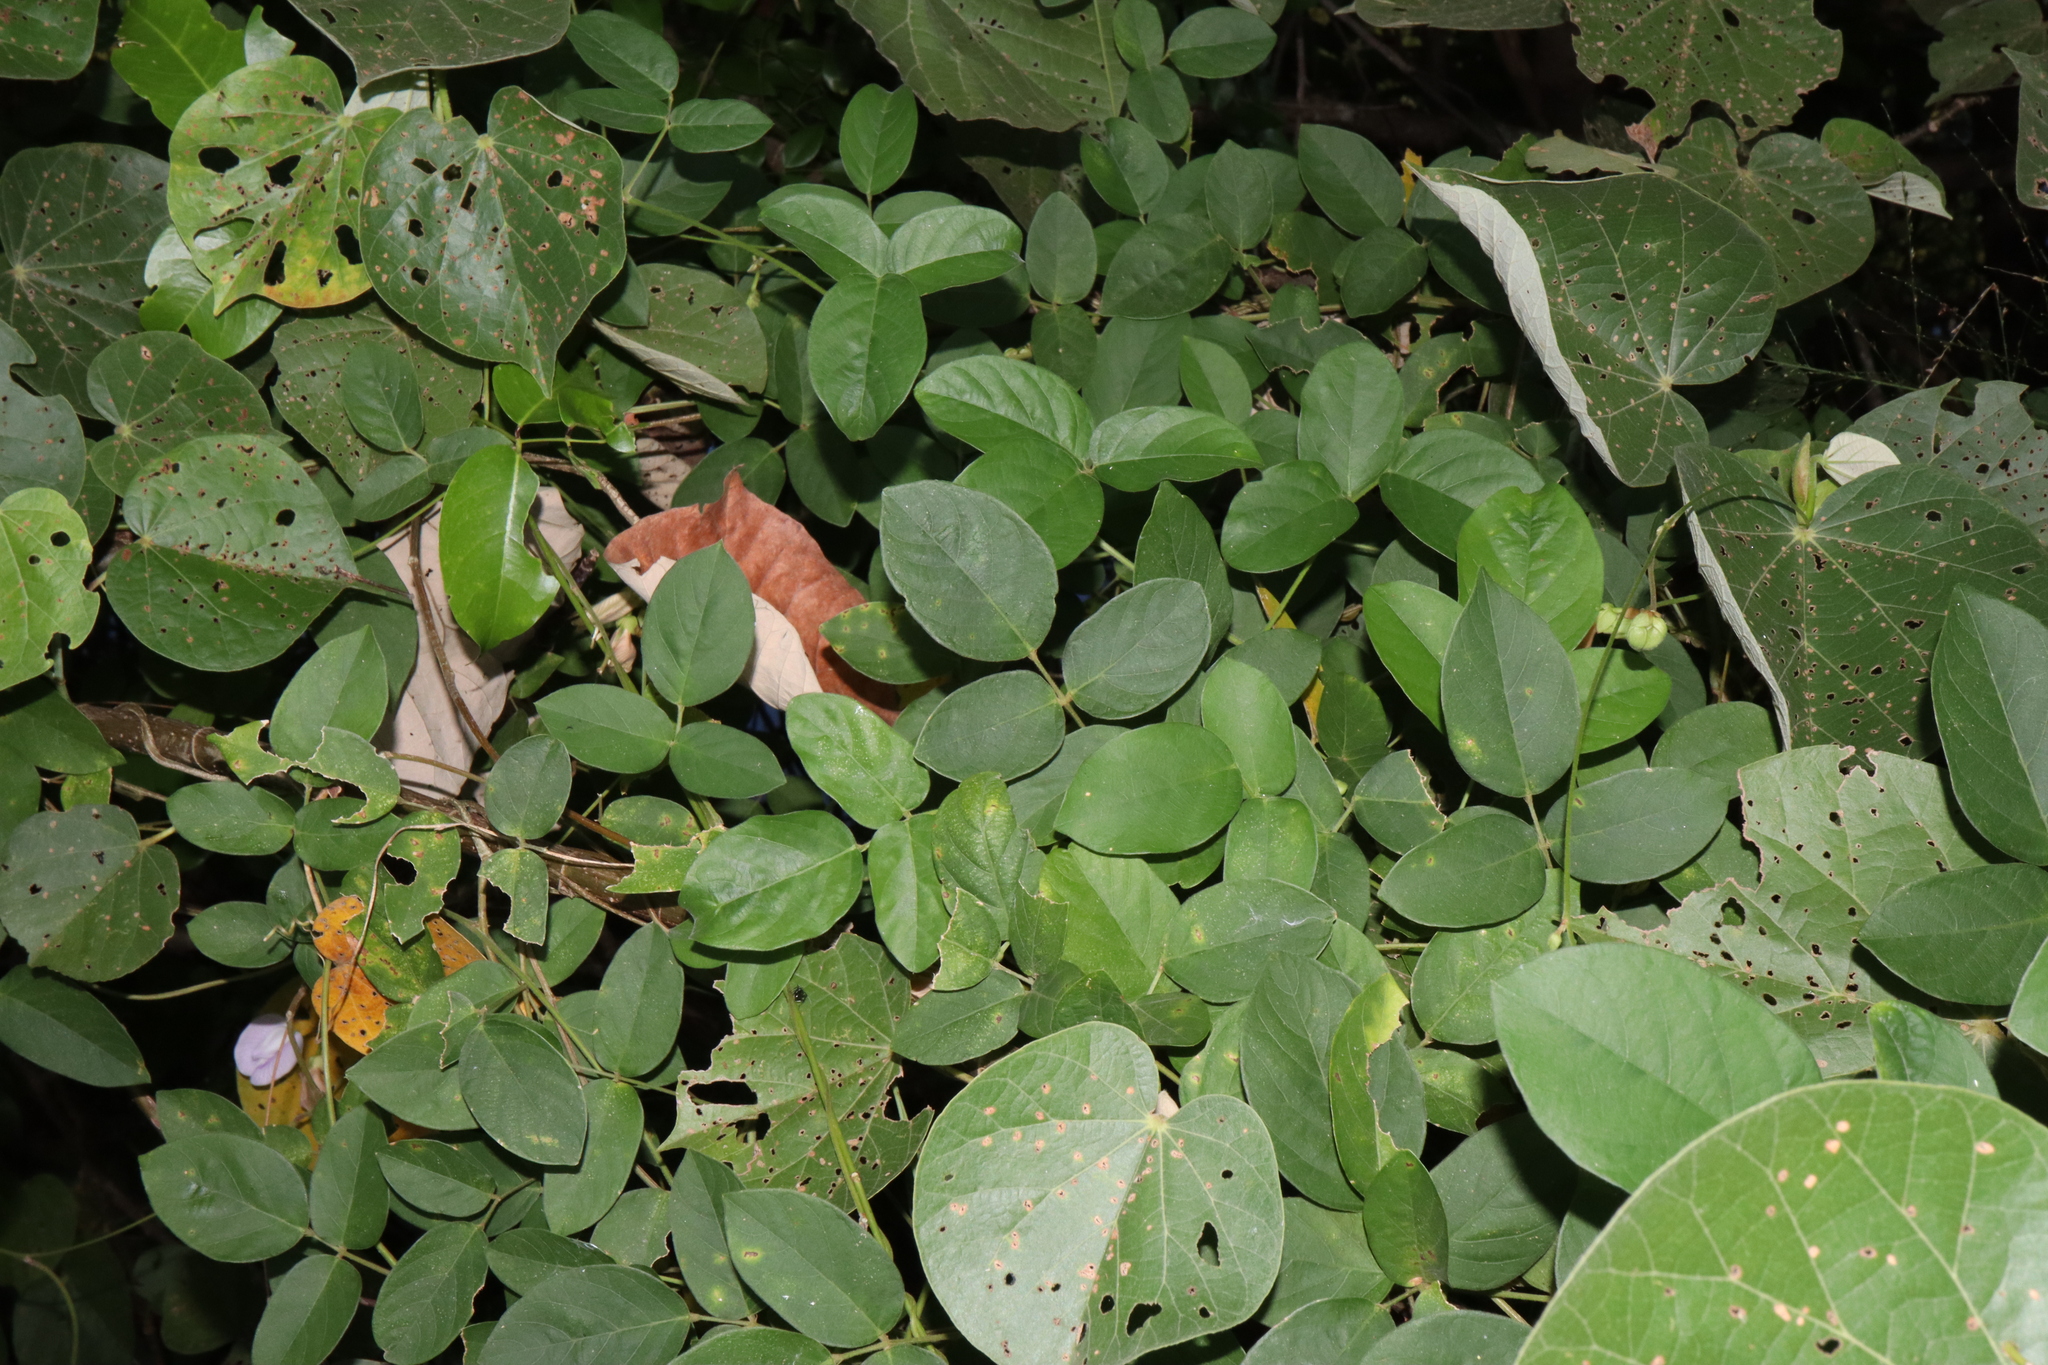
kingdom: Plantae
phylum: Tracheophyta
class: Magnoliopsida
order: Fabales
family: Fabaceae
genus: Centrosema
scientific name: Centrosema molle
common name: Soft butterfly pea
